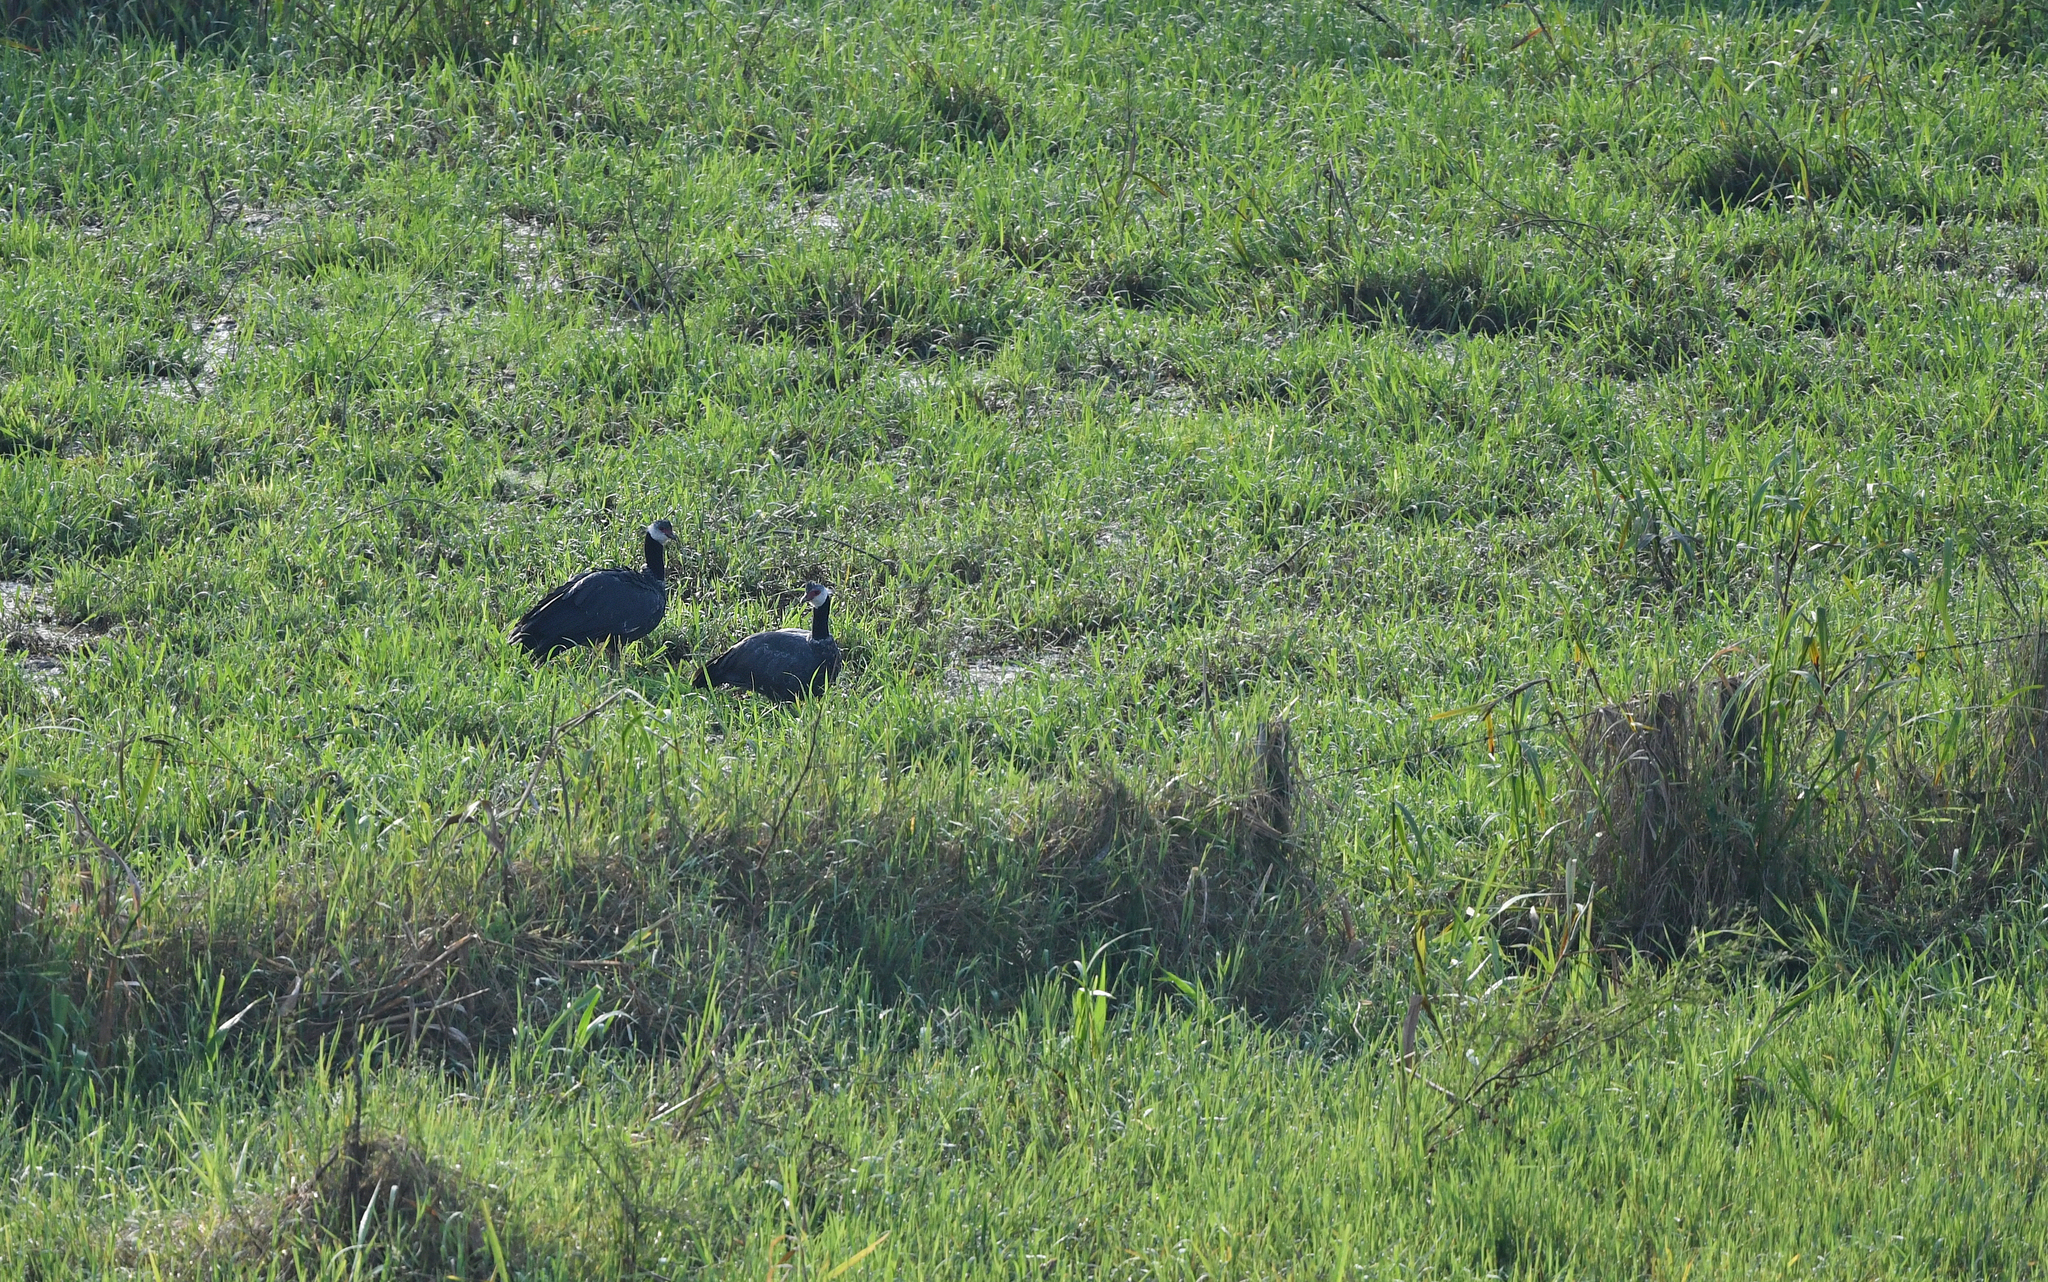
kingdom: Animalia
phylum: Chordata
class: Aves
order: Anseriformes
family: Anhimidae
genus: Chauna
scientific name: Chauna chavaria
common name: Northern screamer
